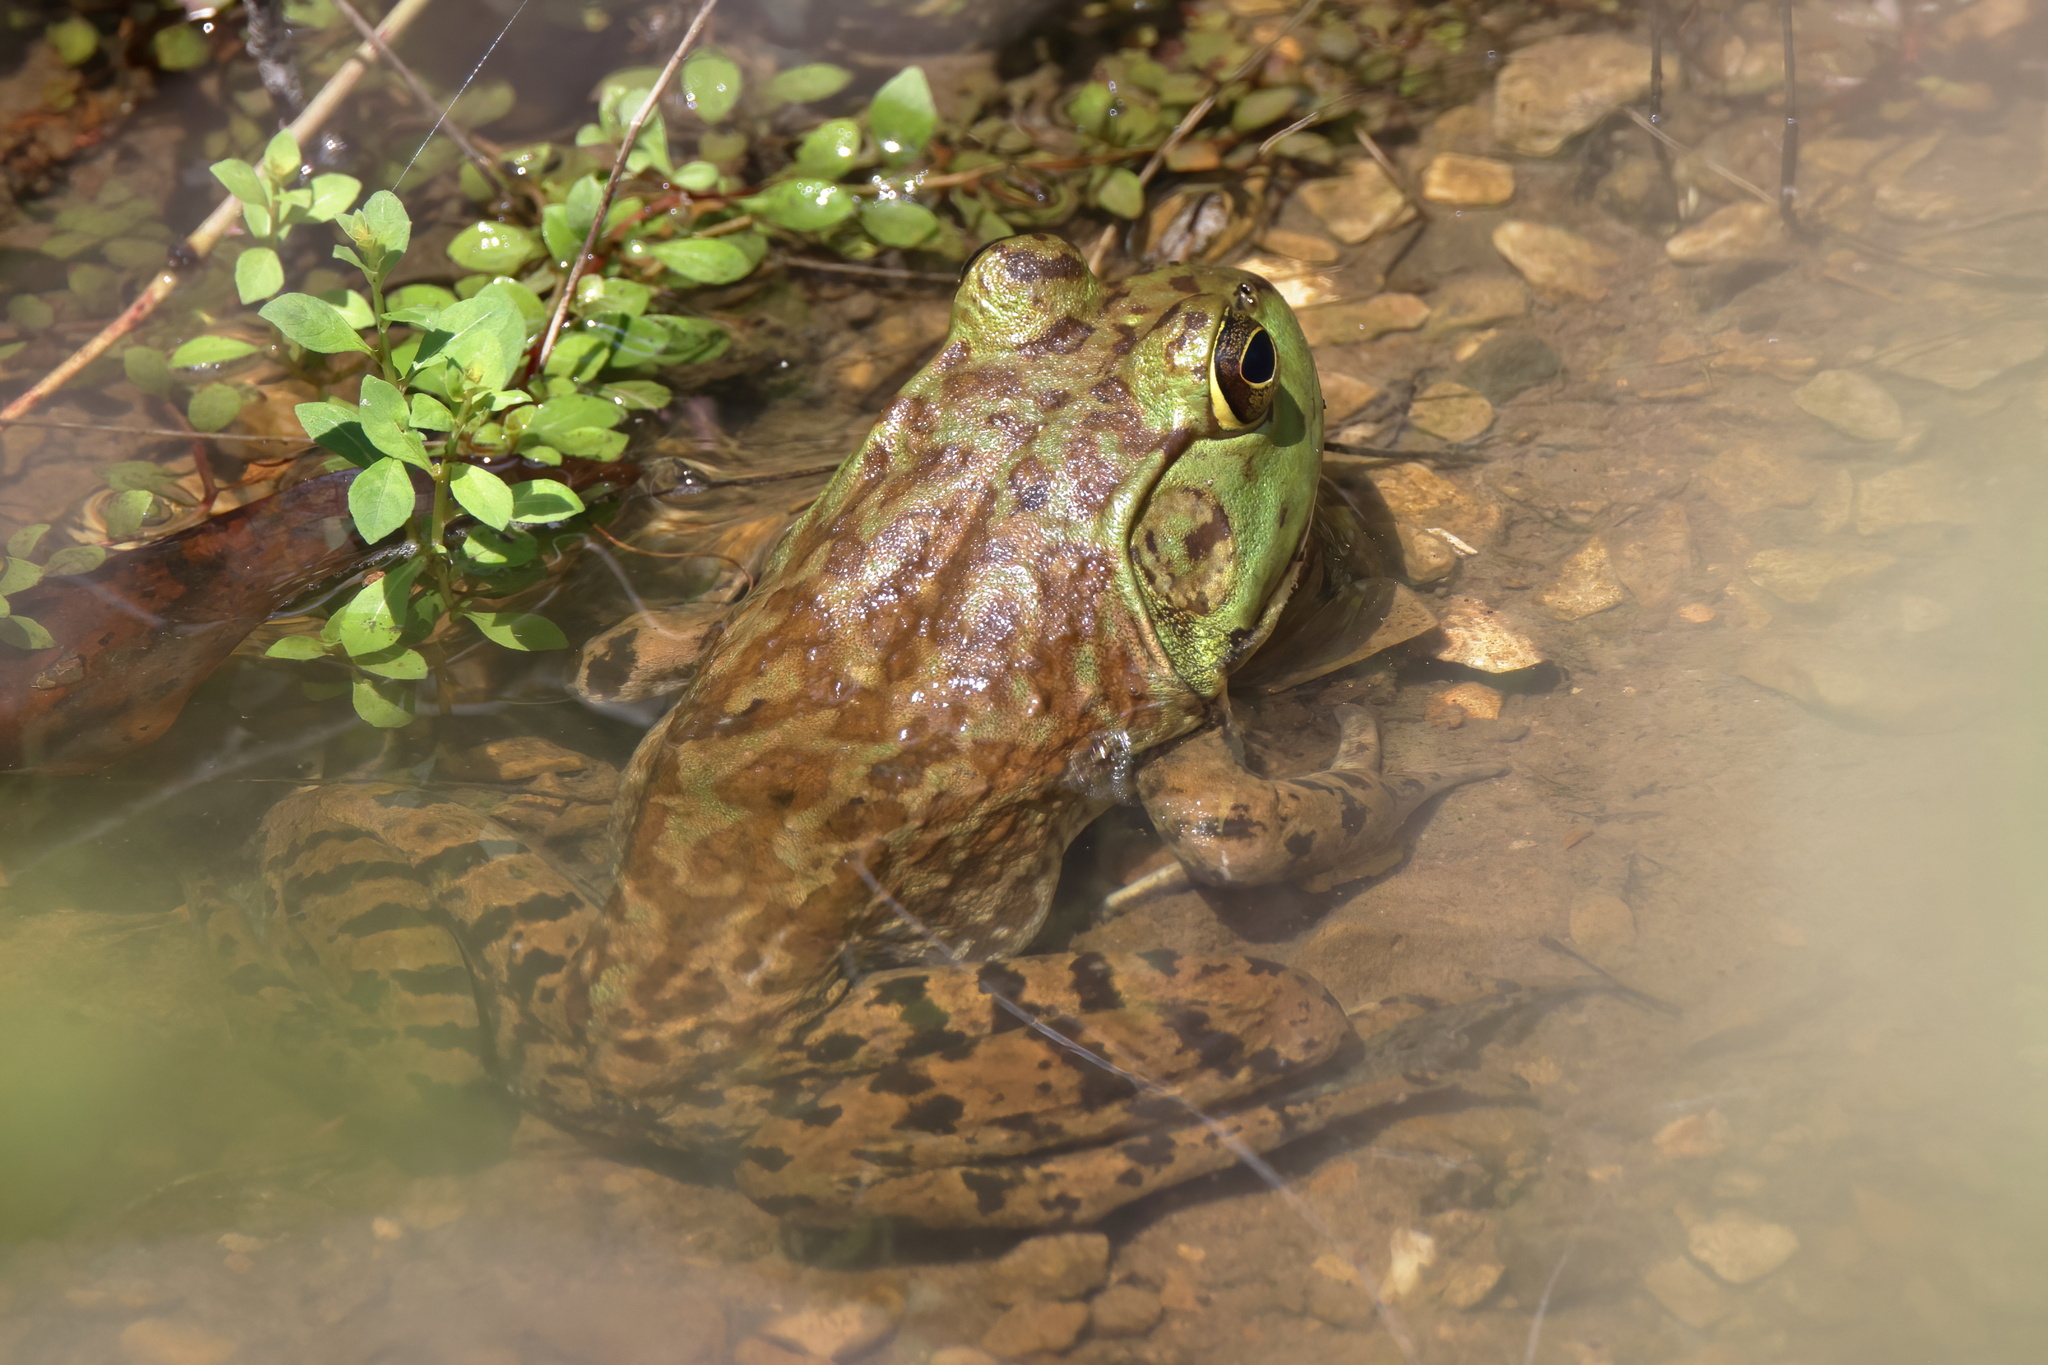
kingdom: Animalia
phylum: Chordata
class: Amphibia
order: Anura
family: Ranidae
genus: Lithobates
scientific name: Lithobates catesbeianus
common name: American bullfrog
